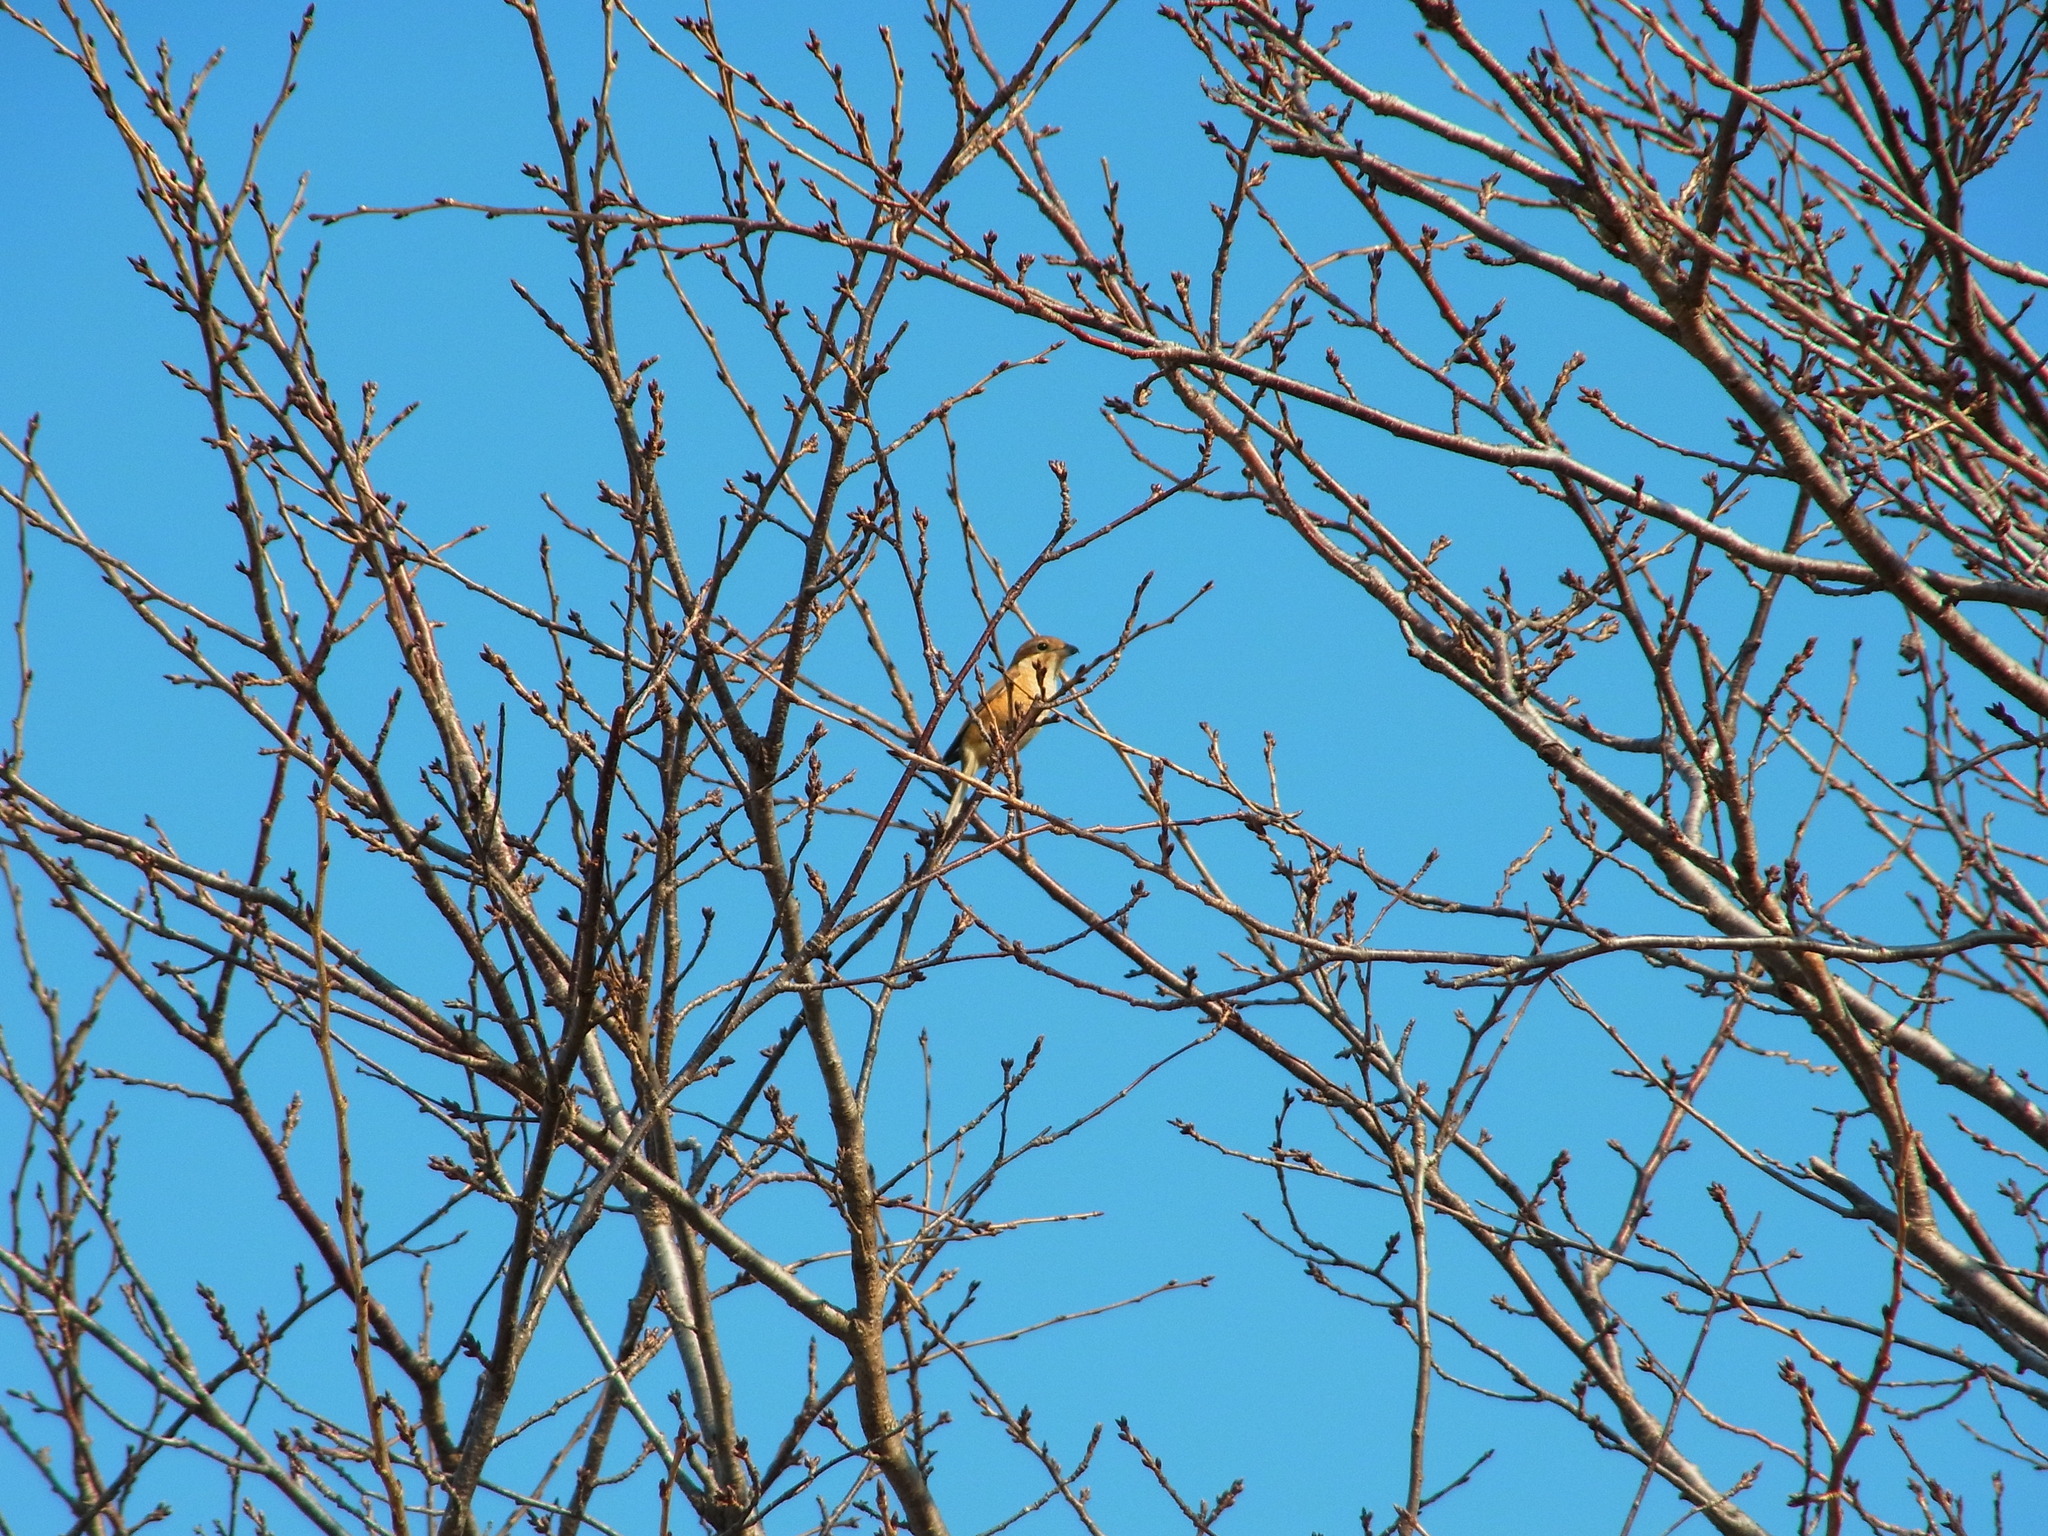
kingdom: Animalia
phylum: Chordata
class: Aves
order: Passeriformes
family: Laniidae
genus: Lanius
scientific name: Lanius bucephalus
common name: Bull-headed shrike
